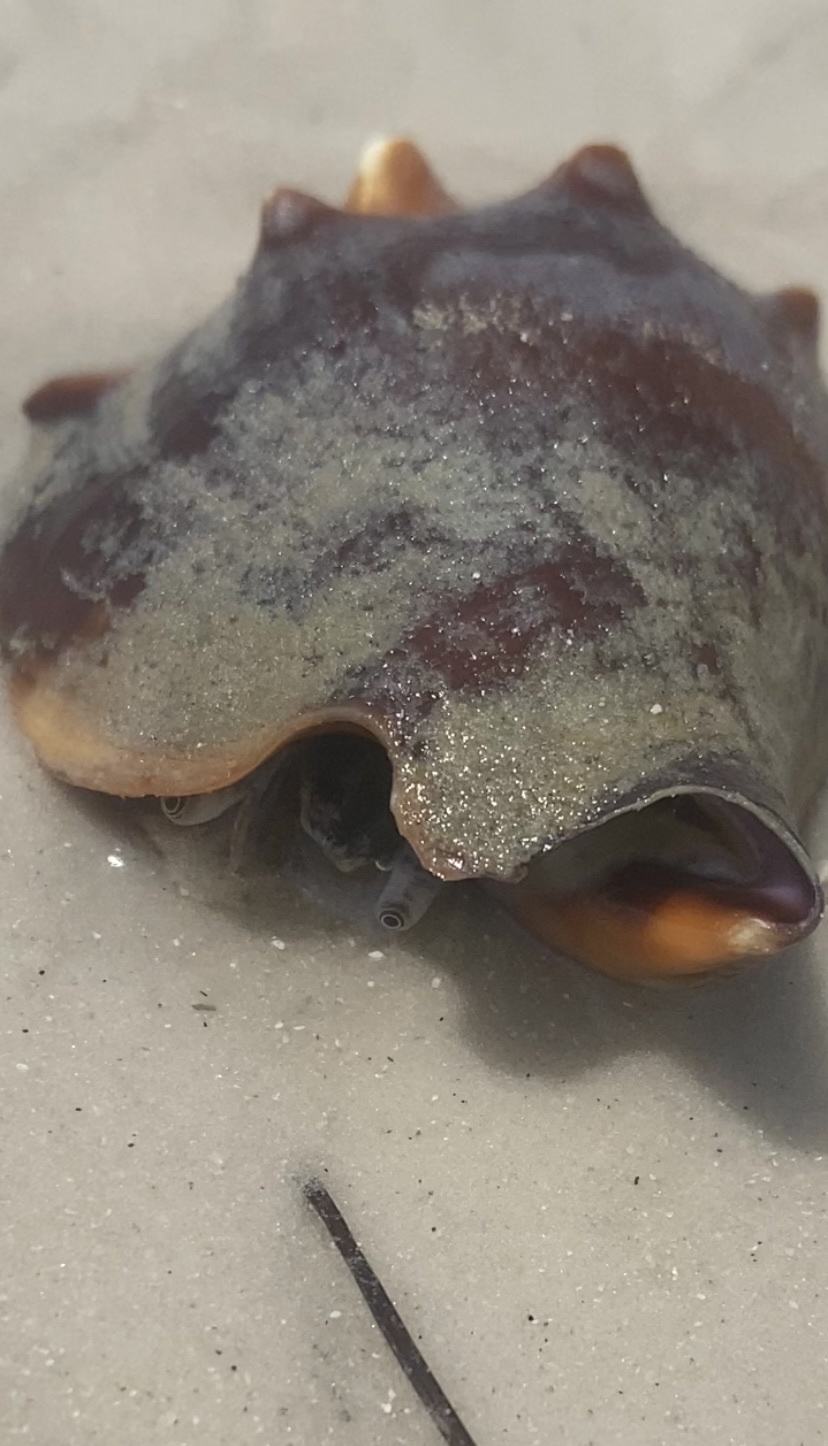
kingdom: Animalia
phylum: Mollusca
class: Gastropoda
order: Littorinimorpha
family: Strombidae
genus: Strombus
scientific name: Strombus alatus
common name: Florida fighting conch
